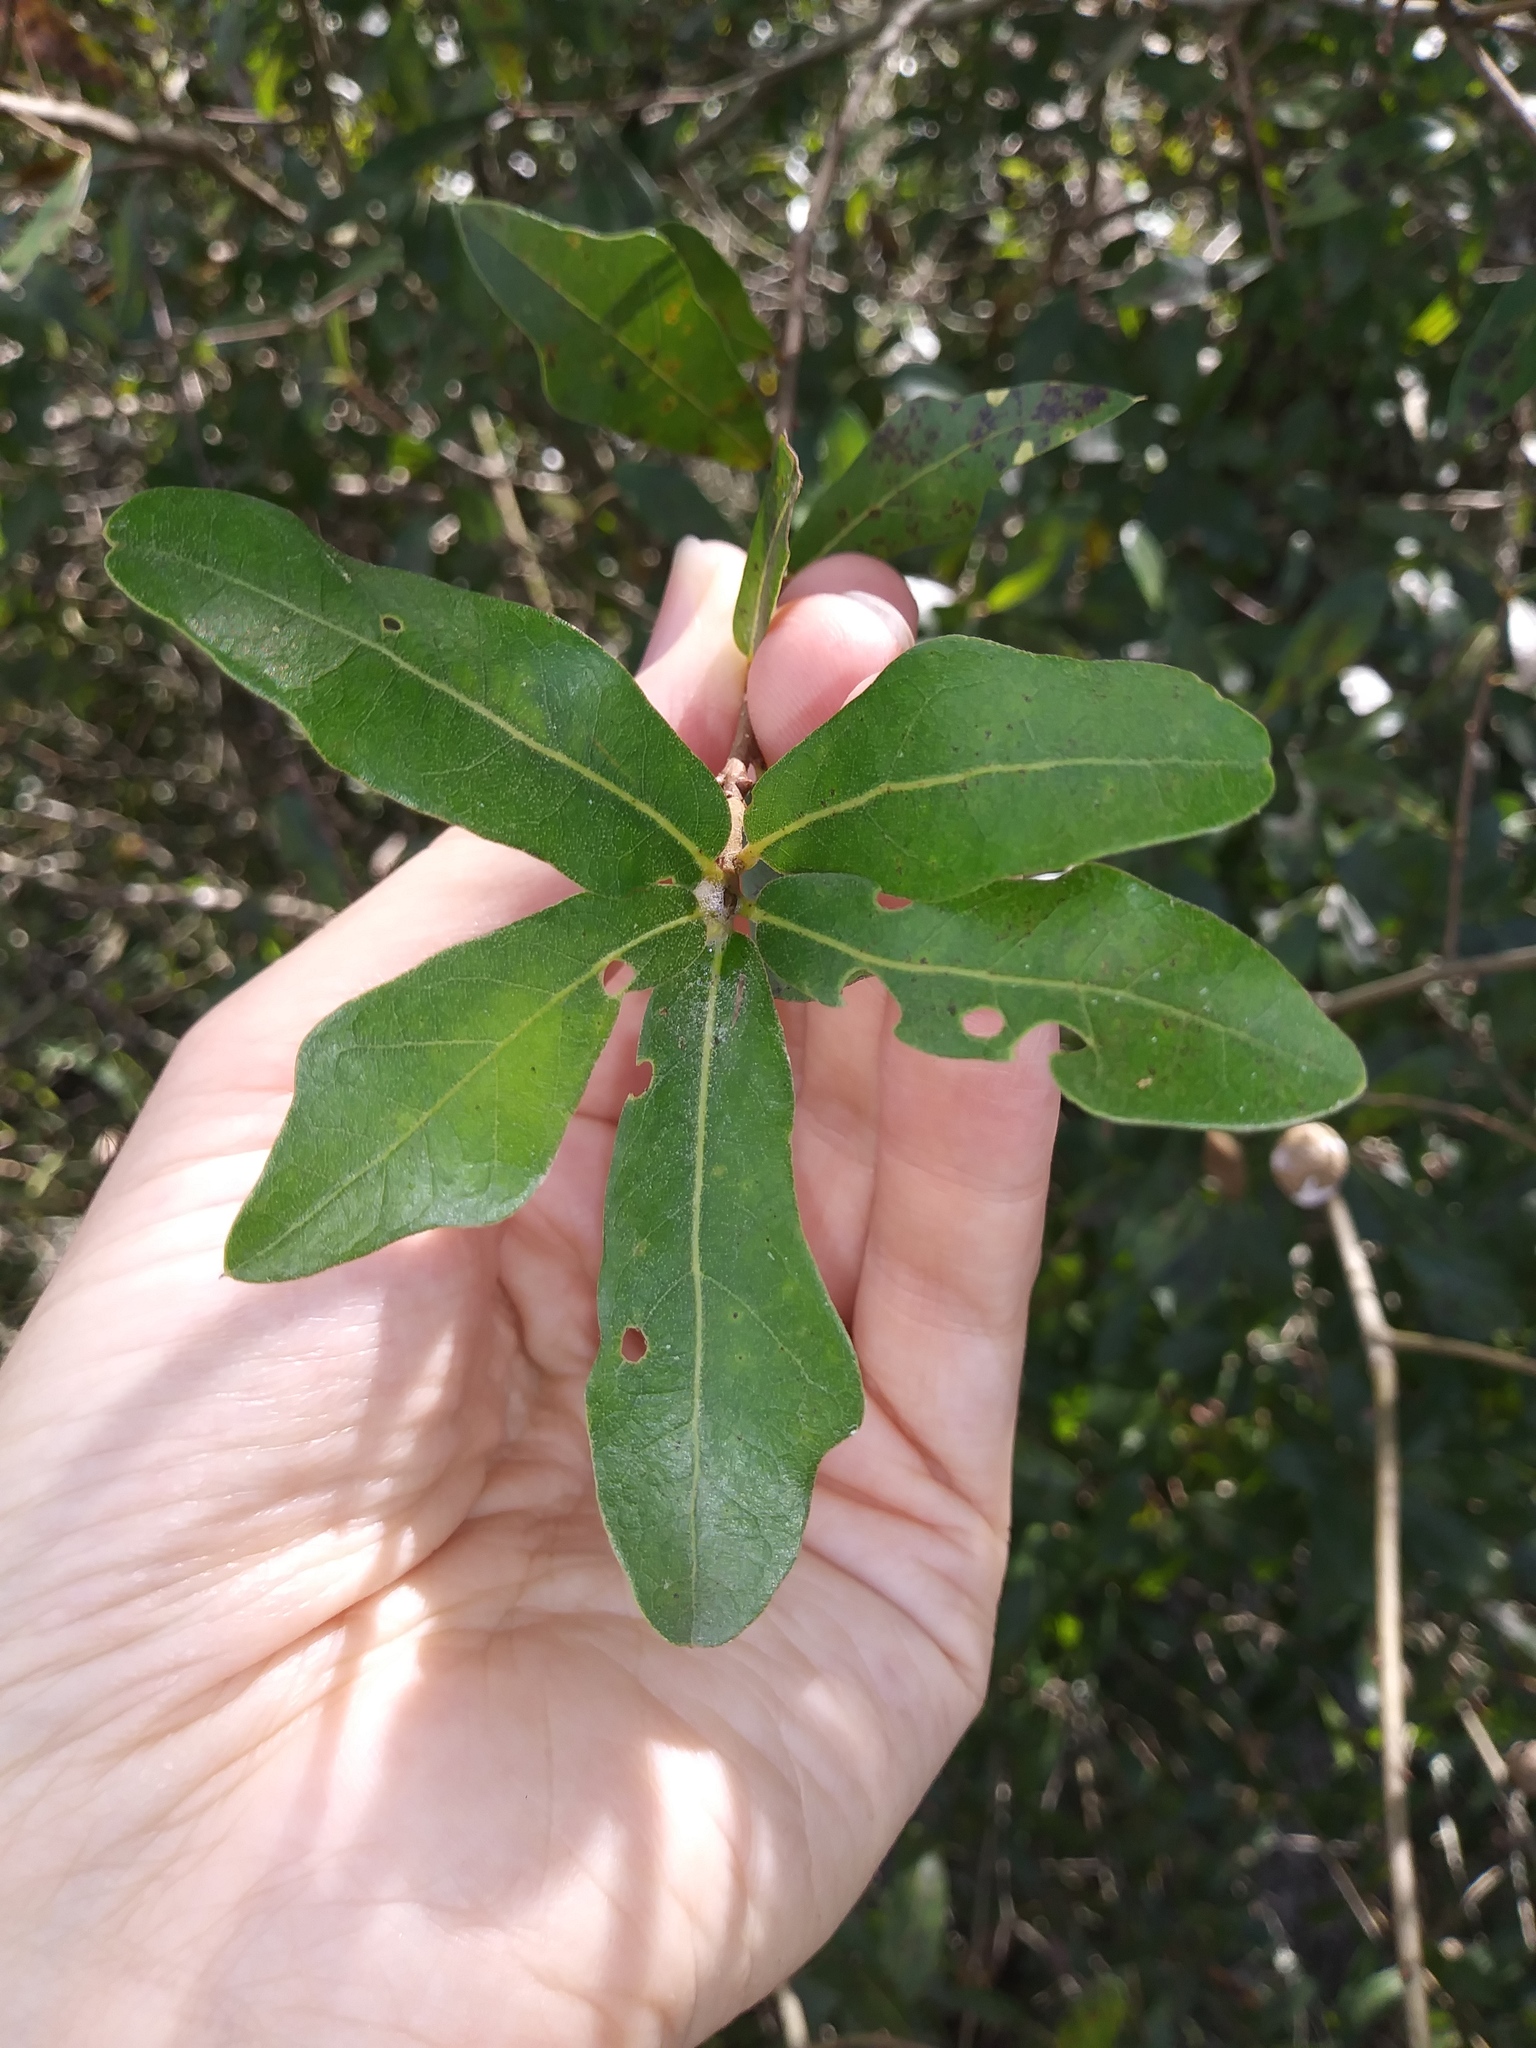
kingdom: Plantae
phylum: Tracheophyta
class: Magnoliopsida
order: Fagales
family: Fagaceae
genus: Quercus
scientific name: Quercus laurifolia
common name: Swamp laurel oak
